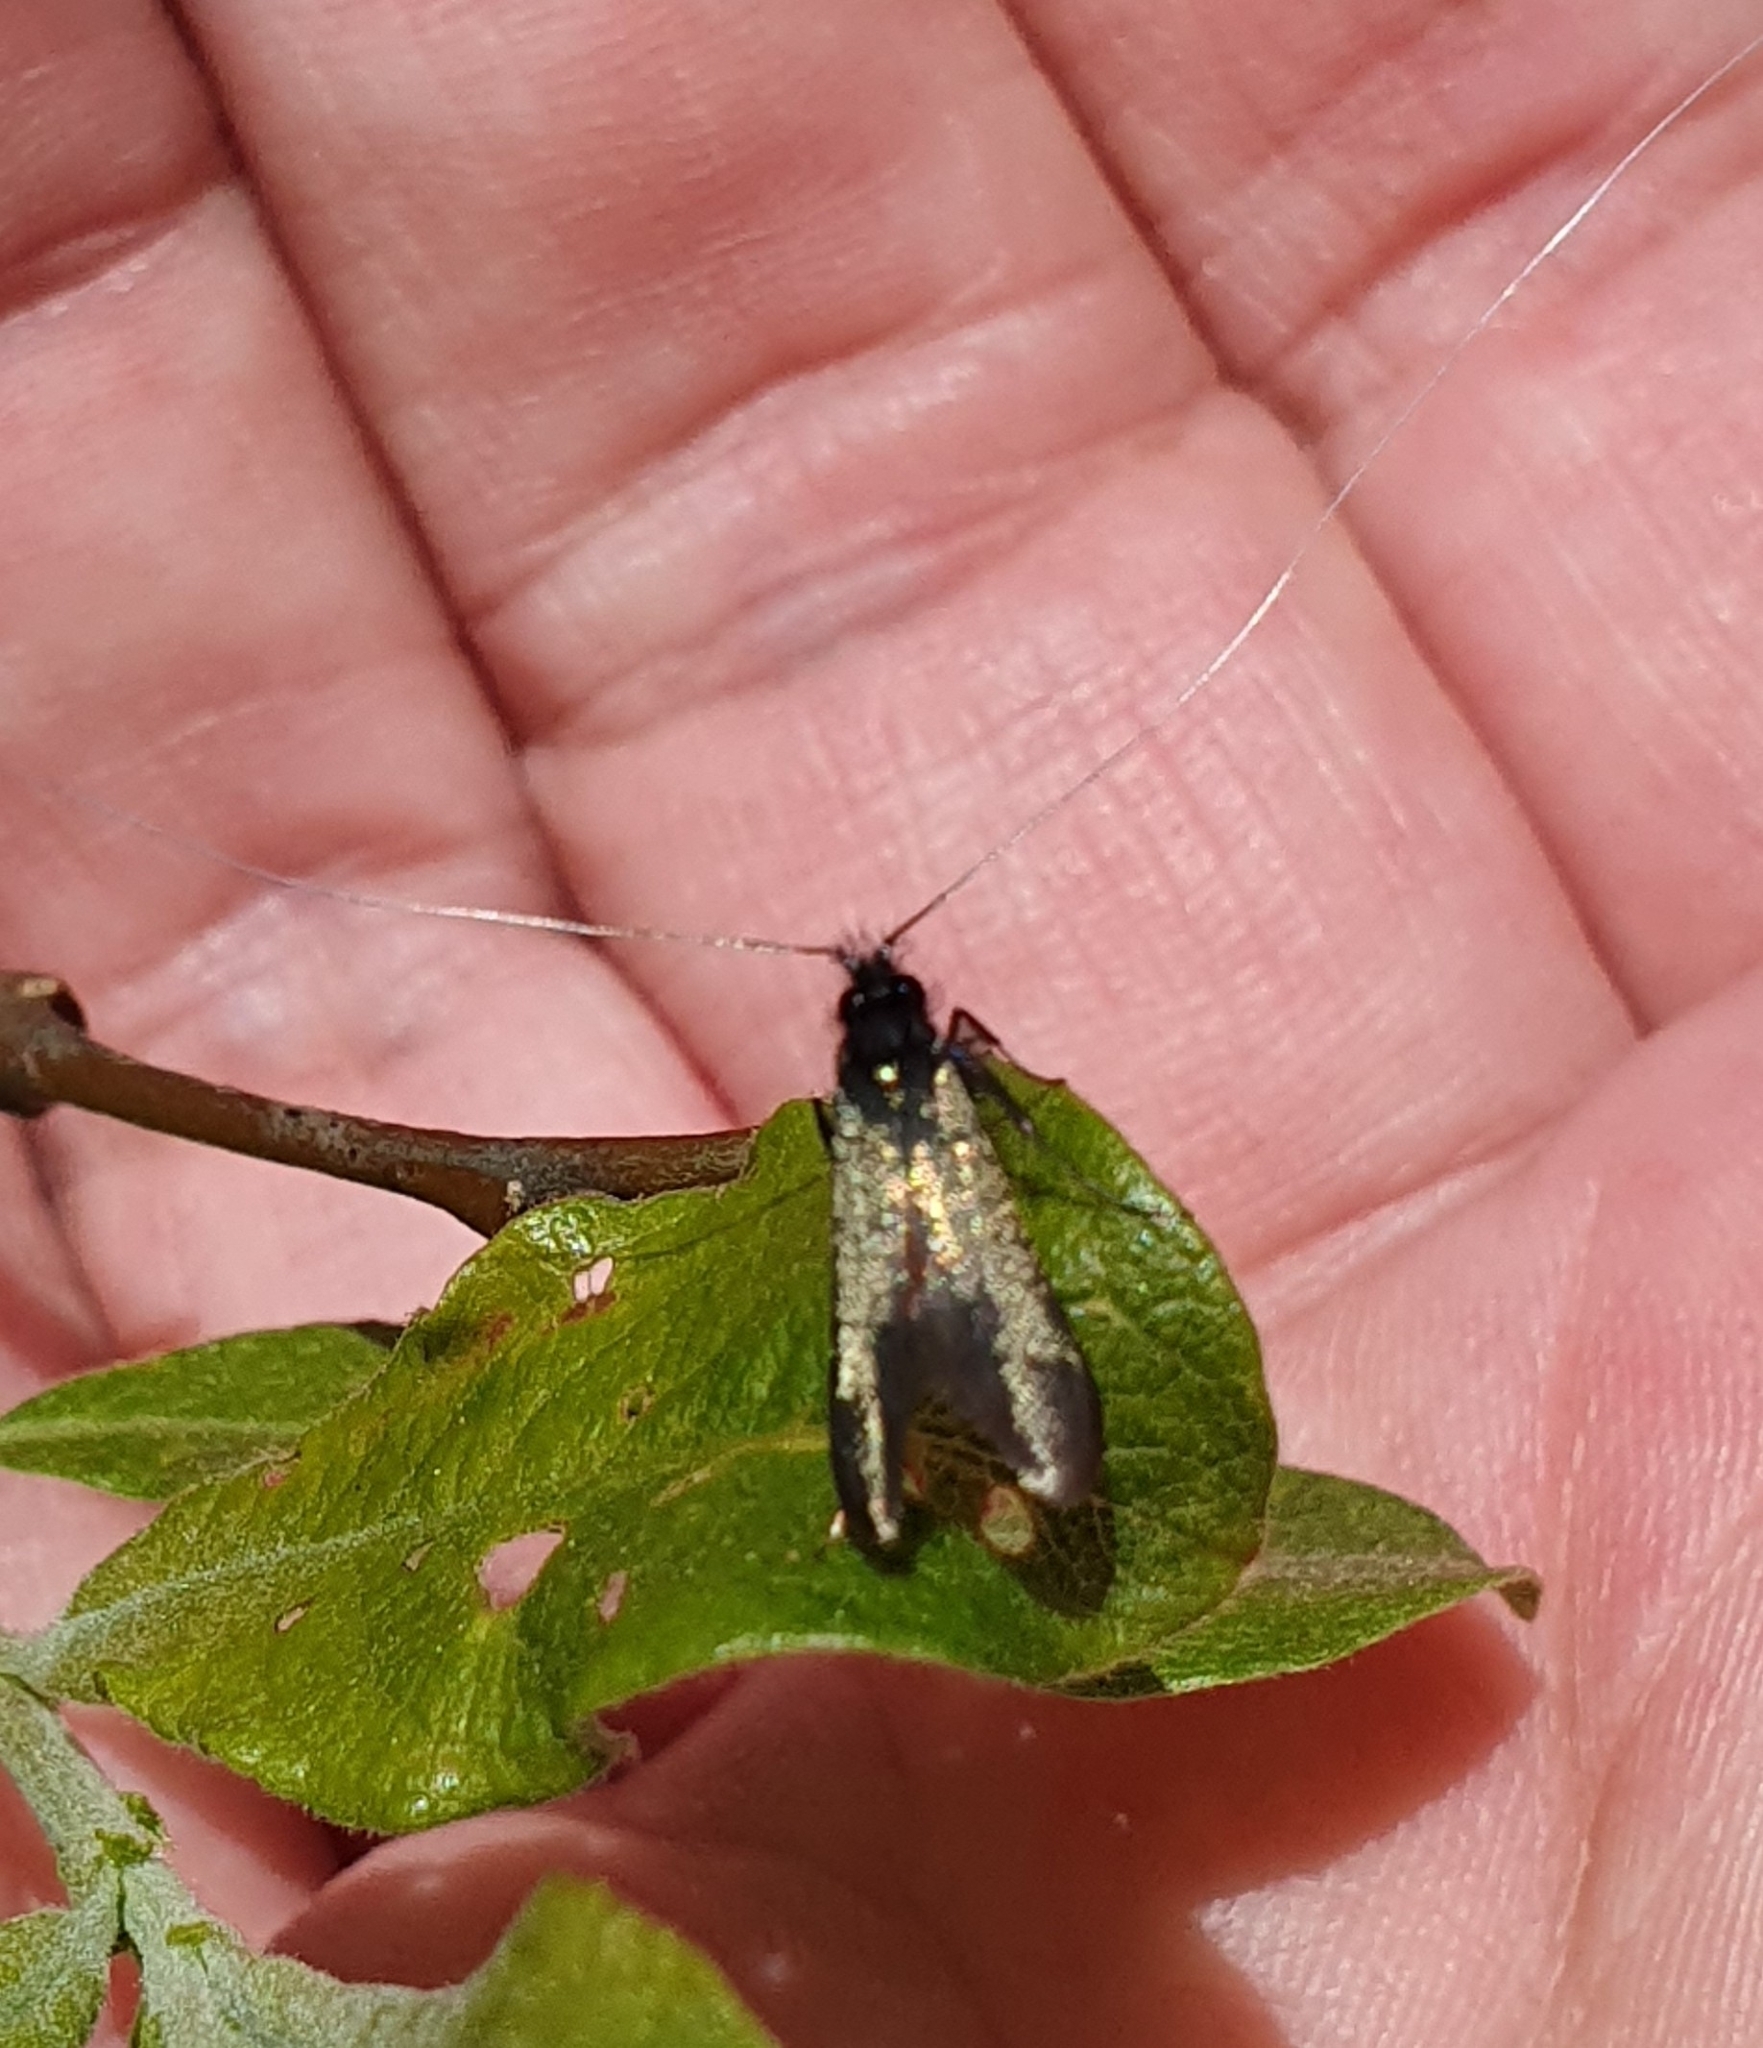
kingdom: Animalia
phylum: Arthropoda
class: Insecta
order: Lepidoptera
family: Adelidae
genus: Adela
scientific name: Adela viridella
